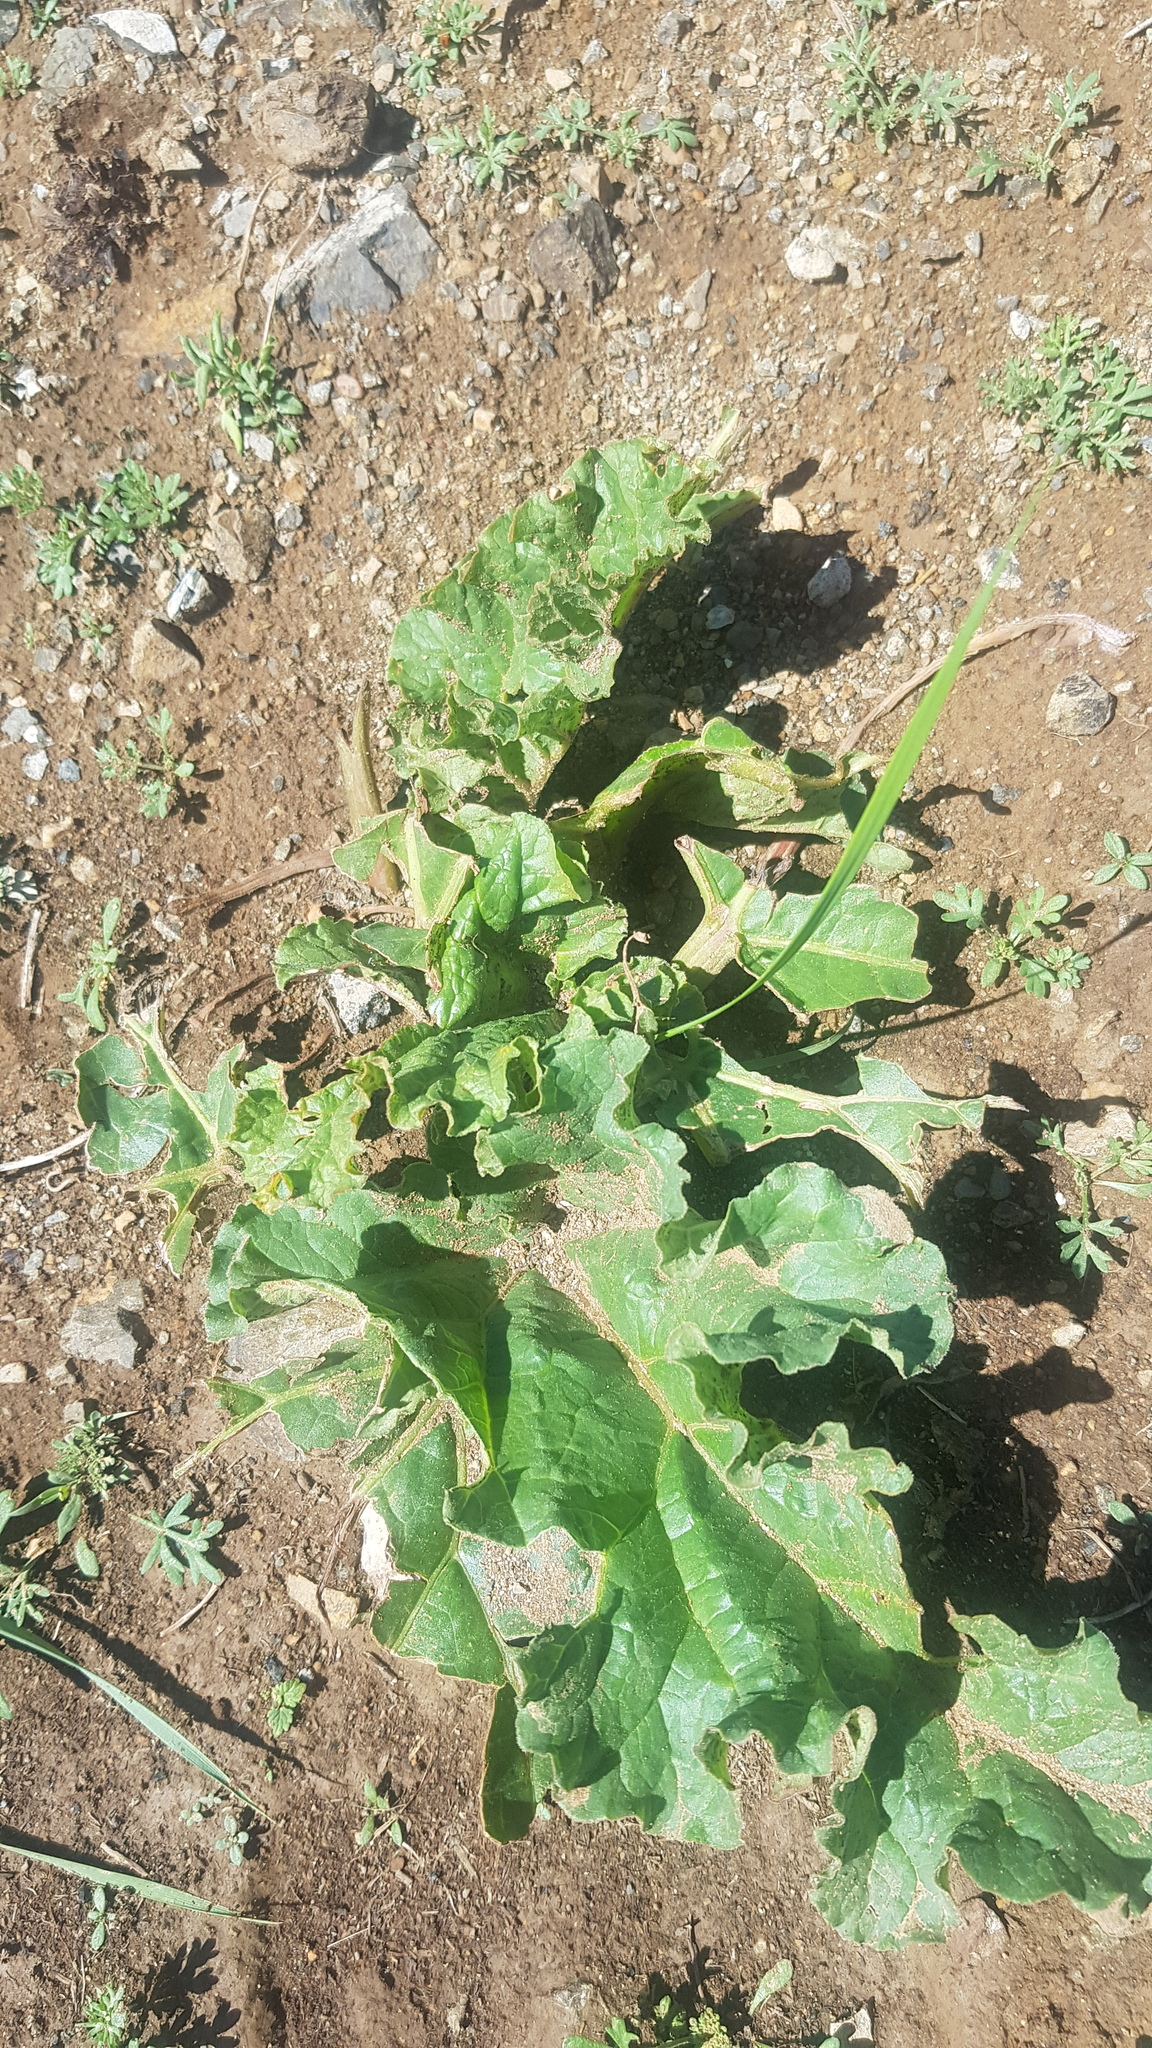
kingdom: Plantae
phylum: Tracheophyta
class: Magnoliopsida
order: Caryophyllales
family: Polygonaceae
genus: Rheum
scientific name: Rheum rhabarbarum
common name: Garden rhubarb
